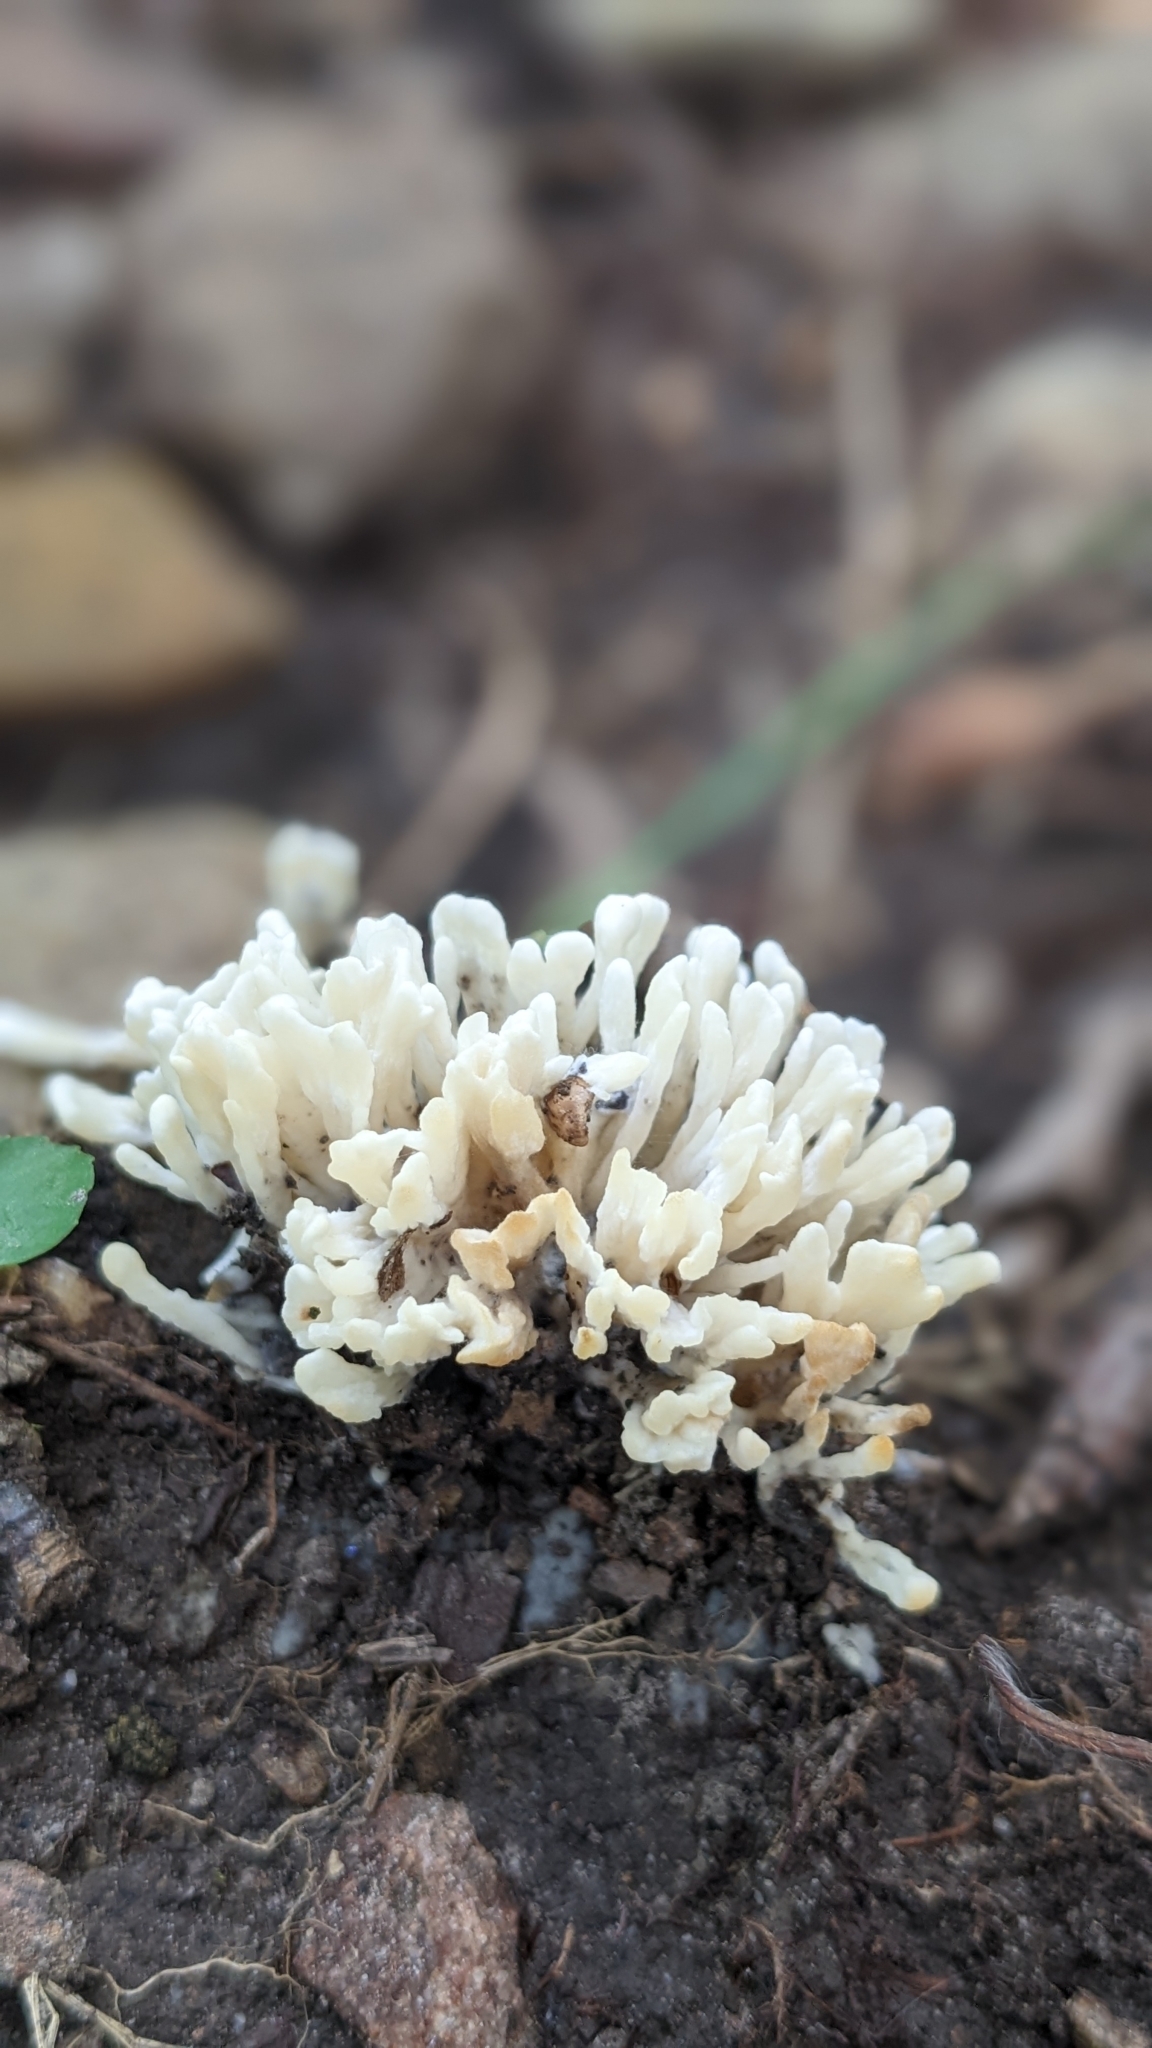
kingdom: Fungi
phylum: Basidiomycota
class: Agaricomycetes
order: Sebacinales
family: Sebacinaceae
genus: Sebacina
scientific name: Sebacina schweinitzii
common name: Jellied false coral fungus
